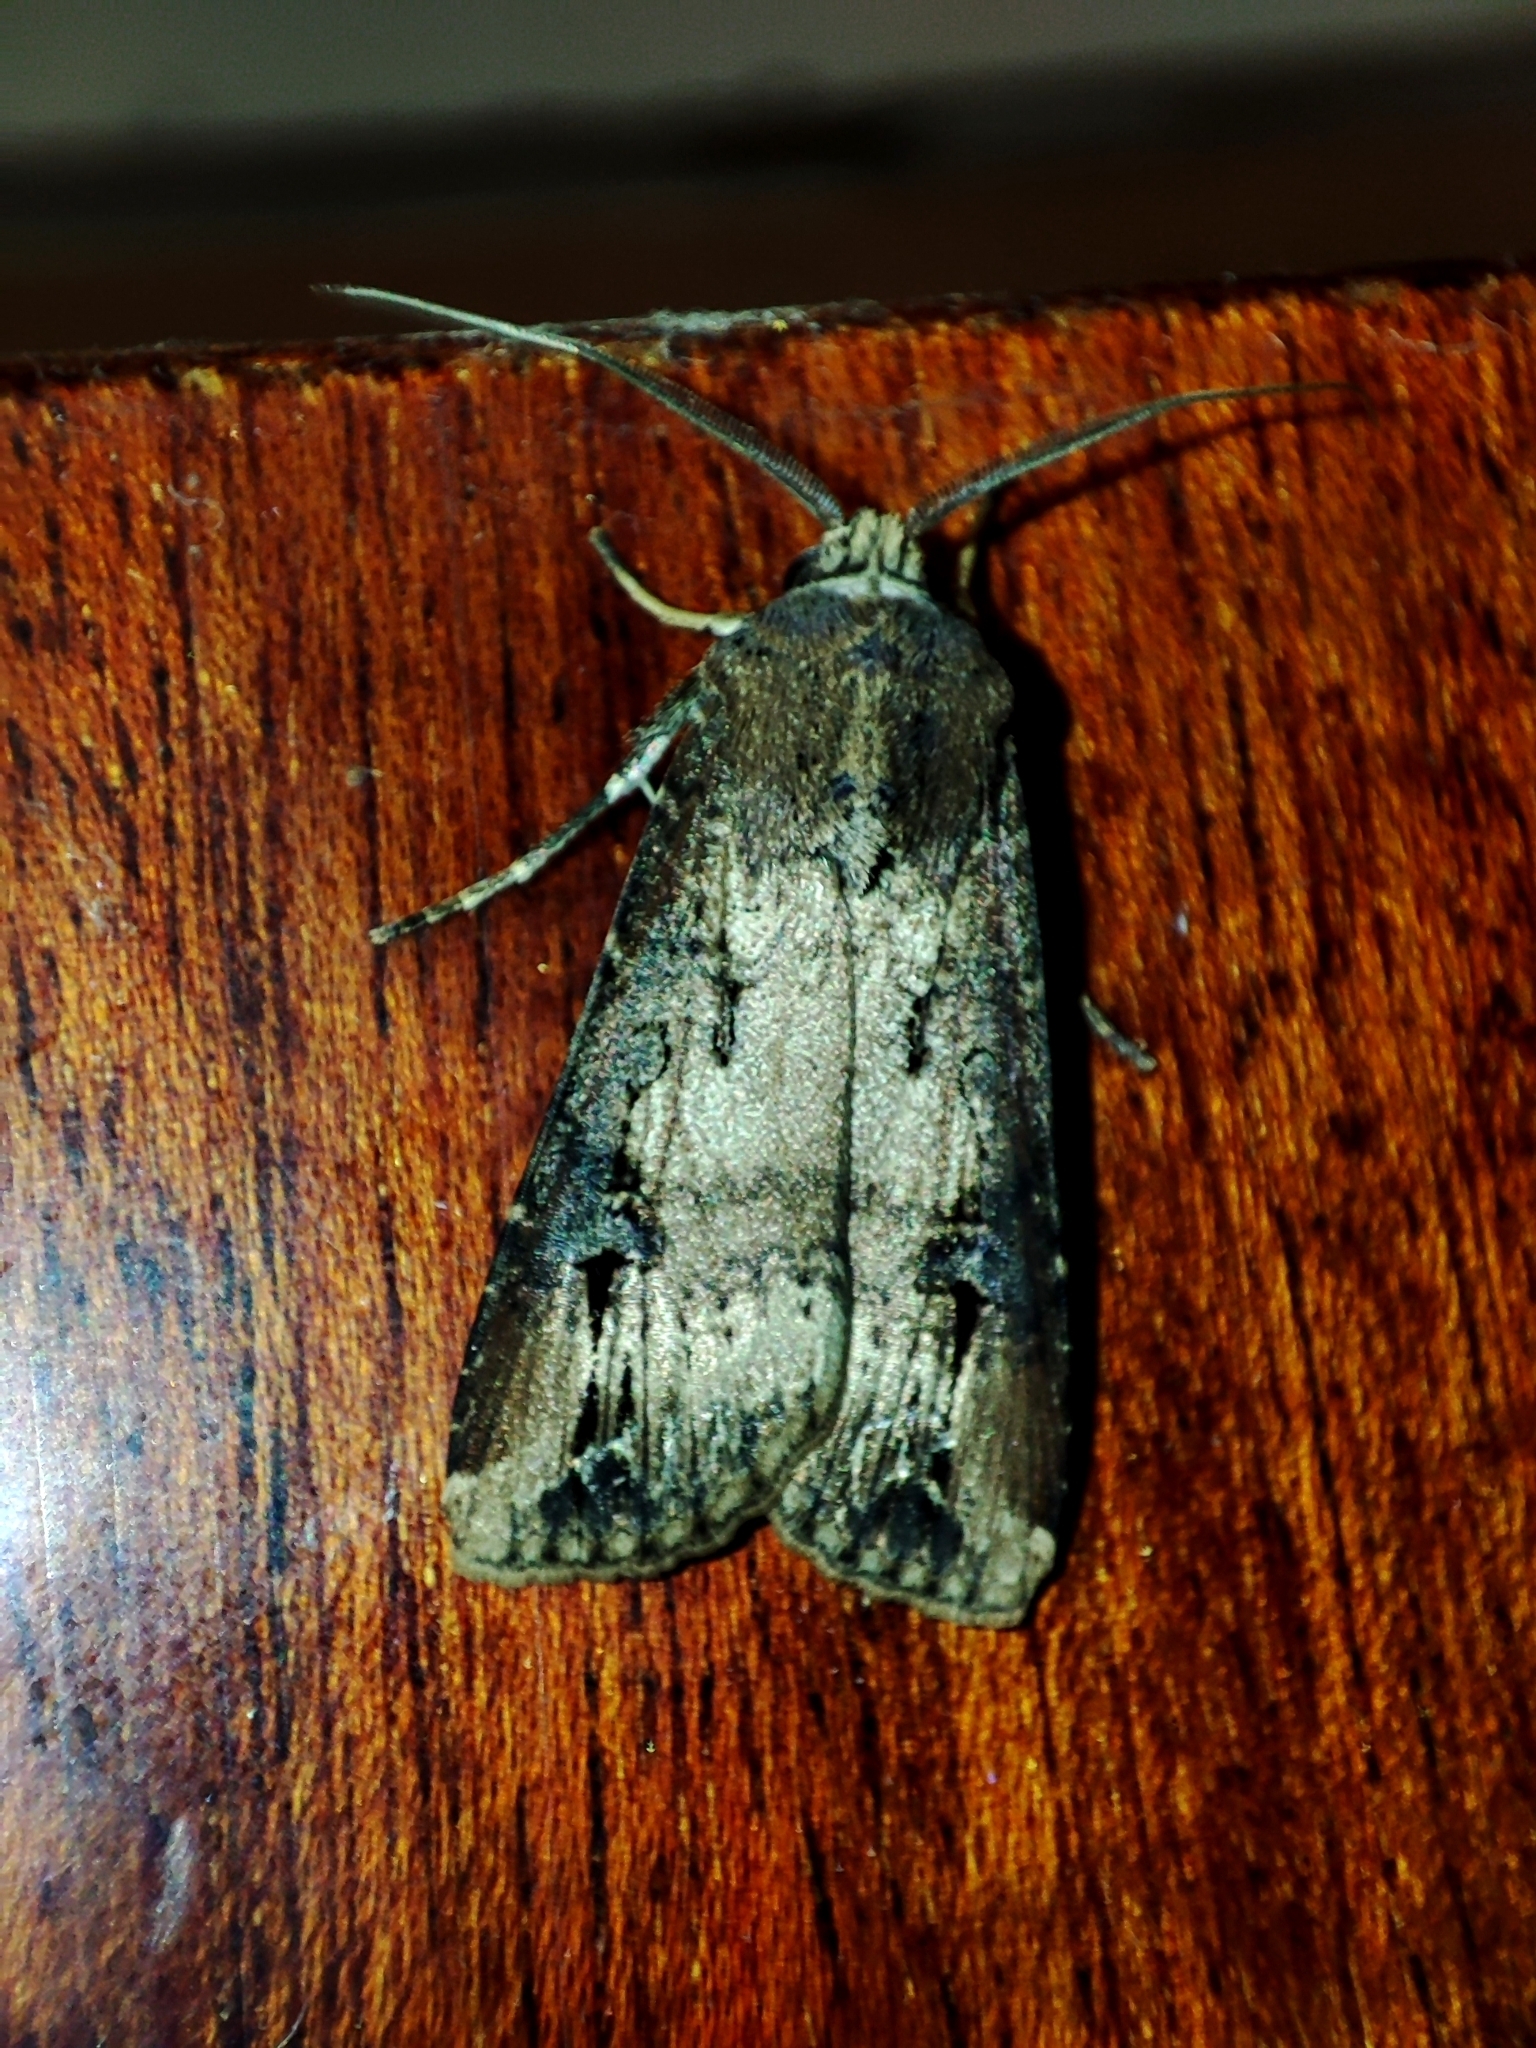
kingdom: Animalia
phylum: Arthropoda
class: Insecta
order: Lepidoptera
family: Noctuidae
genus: Agrotis
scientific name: Agrotis ipsilon
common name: Dark sword-grass
